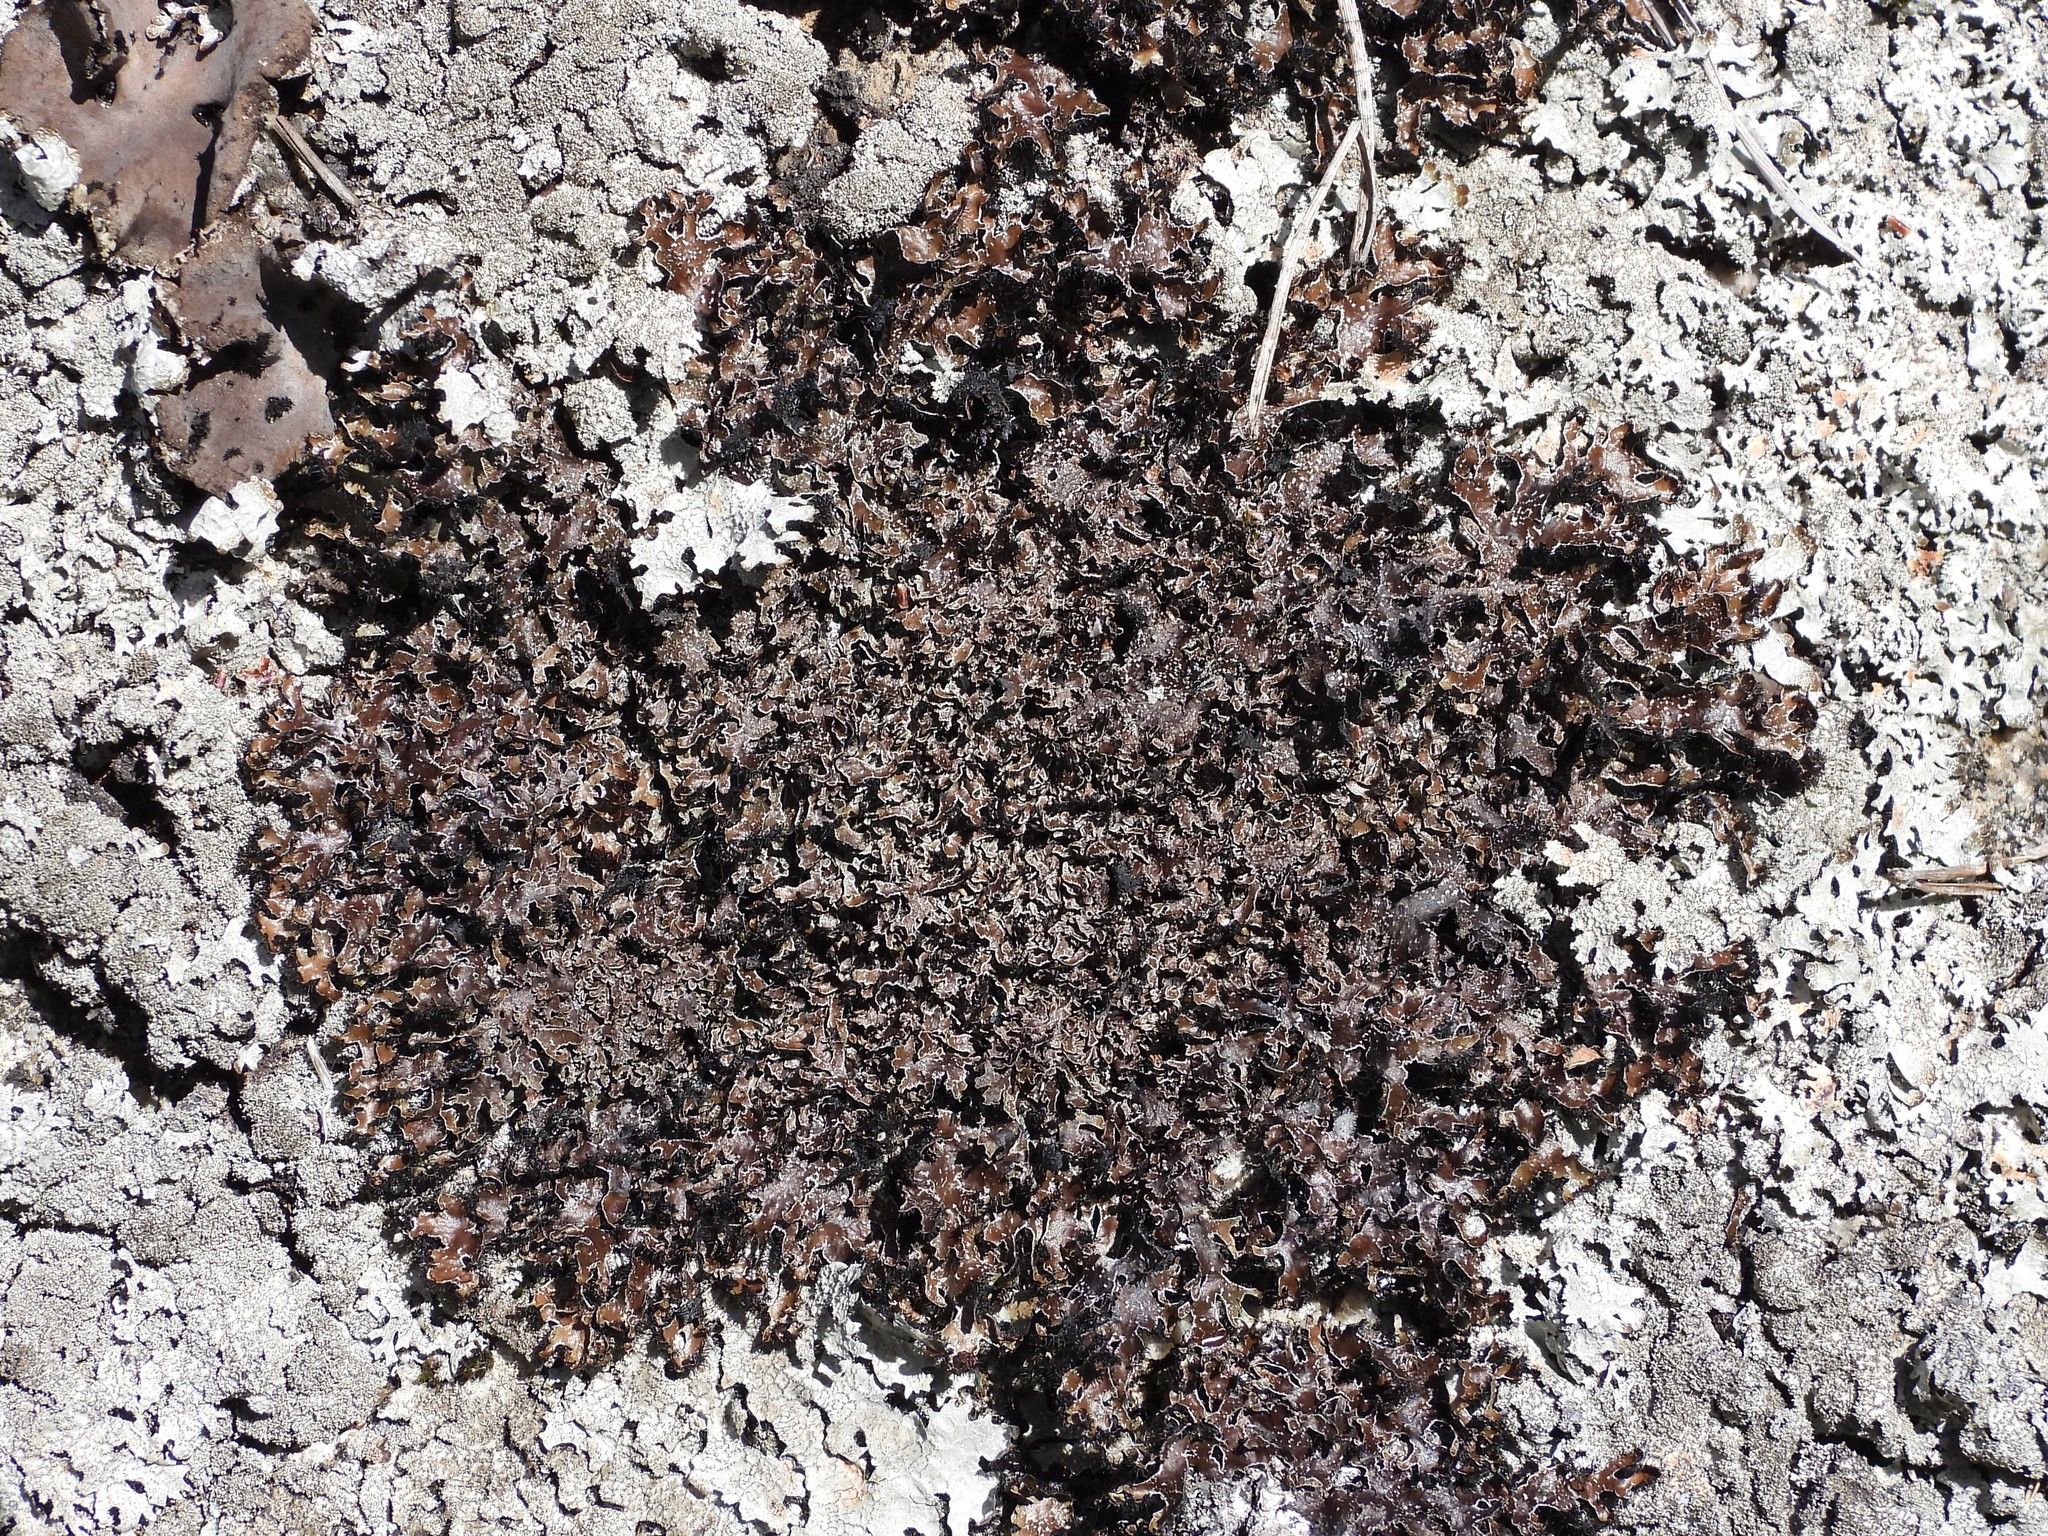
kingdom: Fungi
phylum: Ascomycota
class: Lecanoromycetes
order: Lecanorales
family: Parmeliaceae
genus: Parmelia
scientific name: Parmelia omphalodes
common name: Smoky crottle
